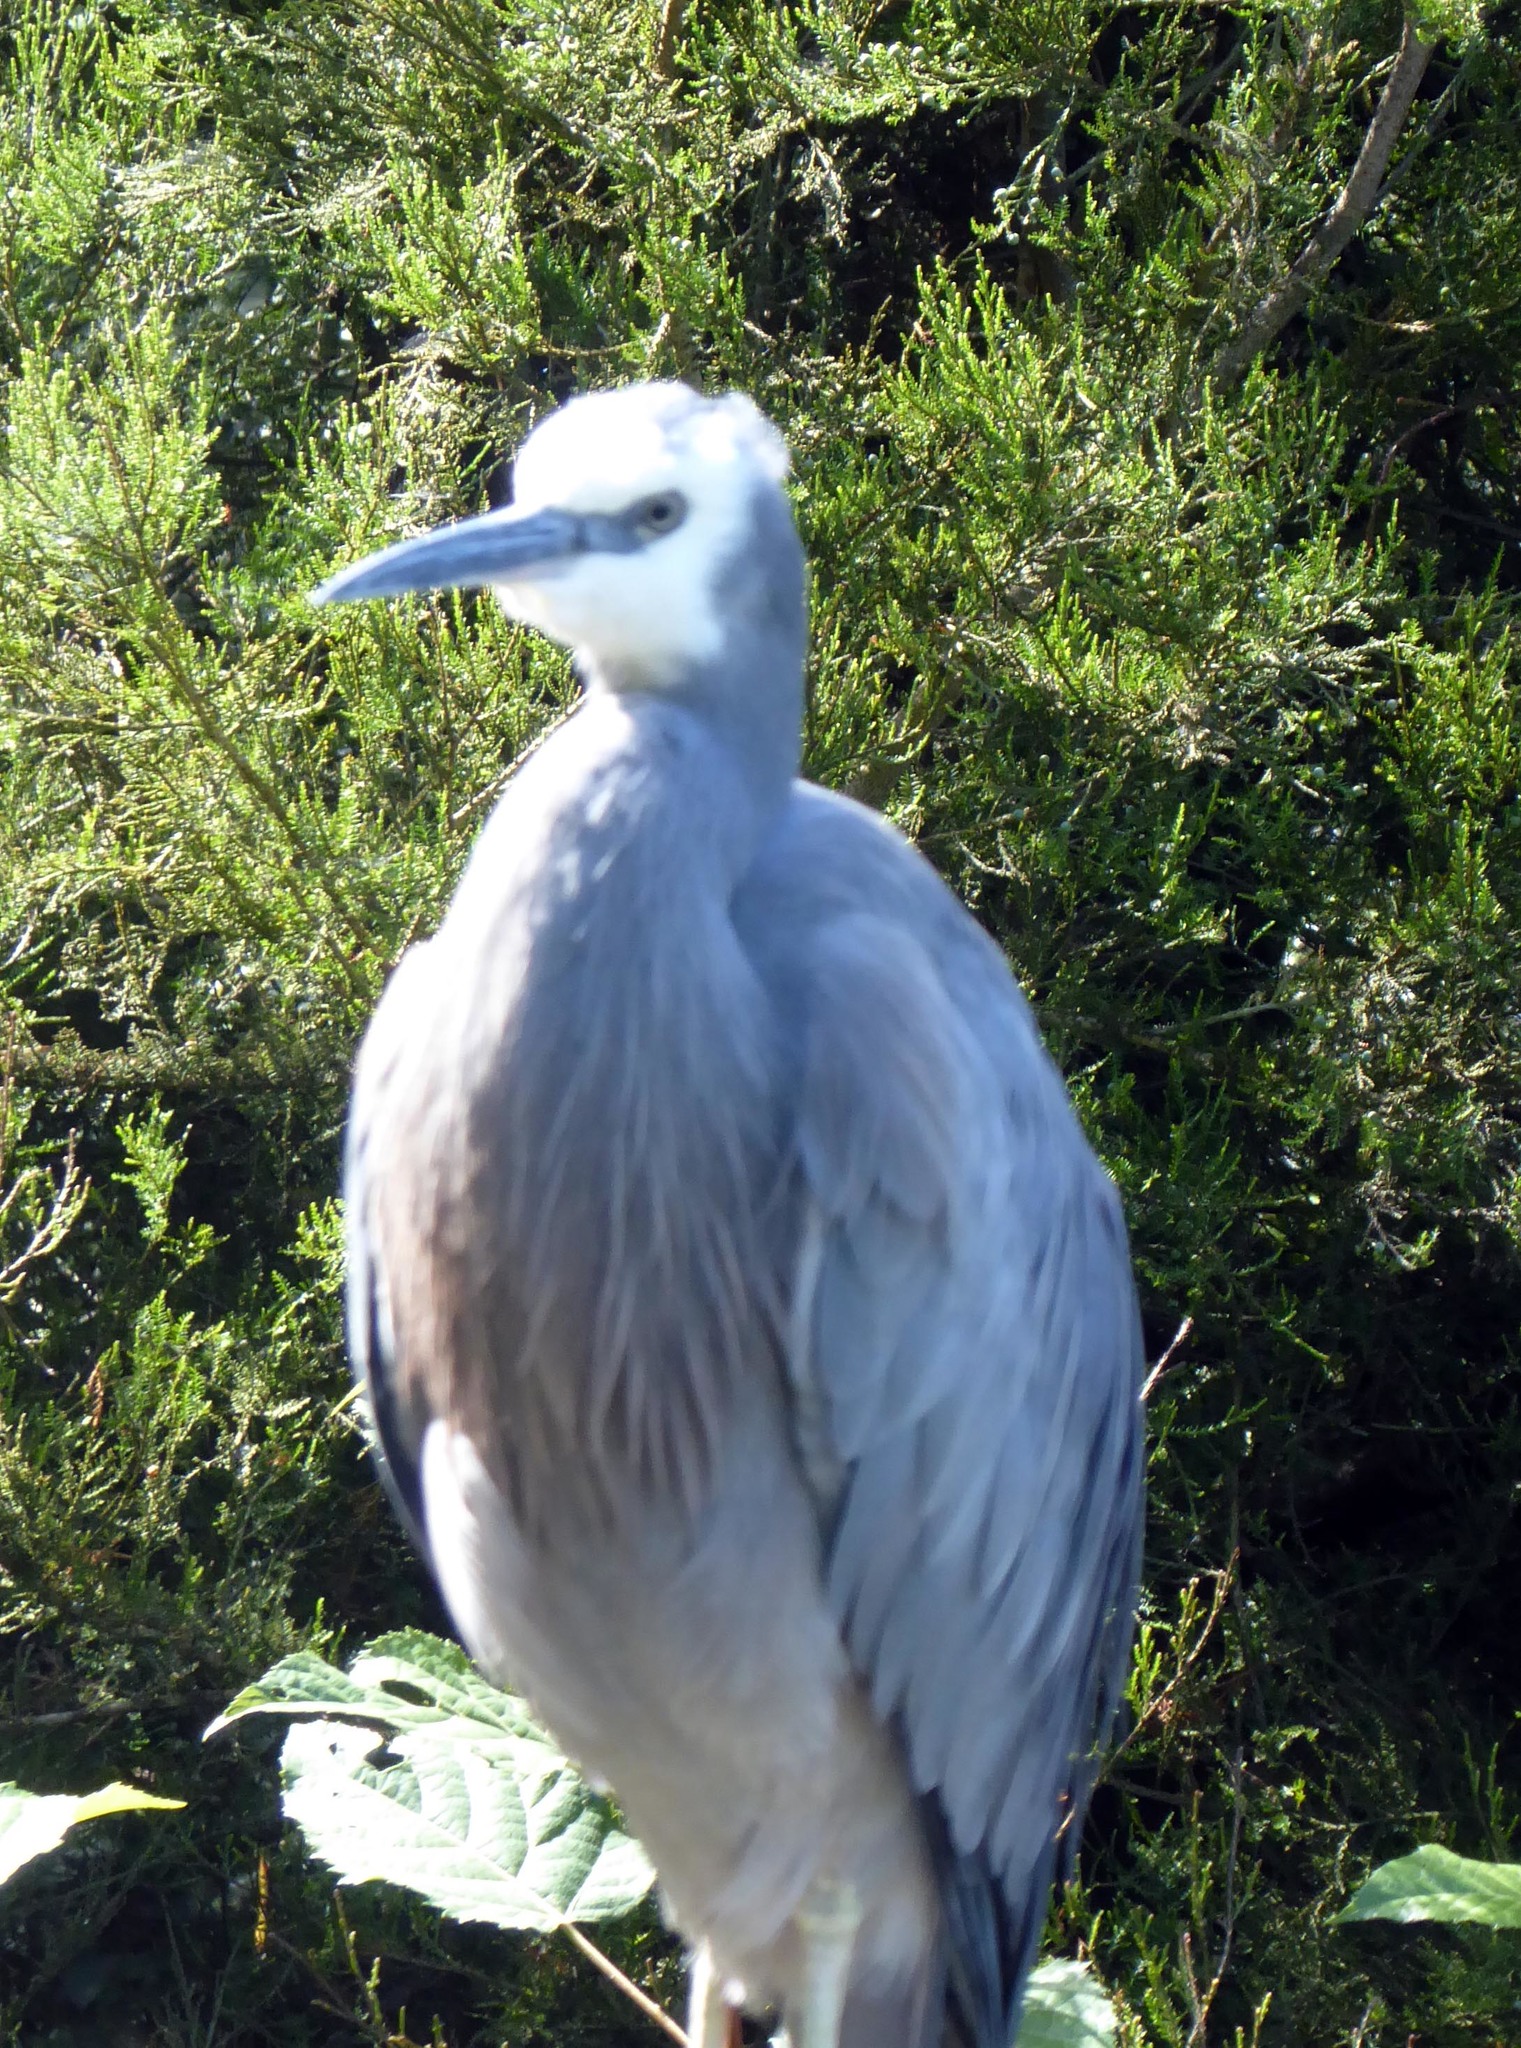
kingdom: Animalia
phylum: Chordata
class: Aves
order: Pelecaniformes
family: Ardeidae
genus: Egretta
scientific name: Egretta novaehollandiae
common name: White-faced heron
